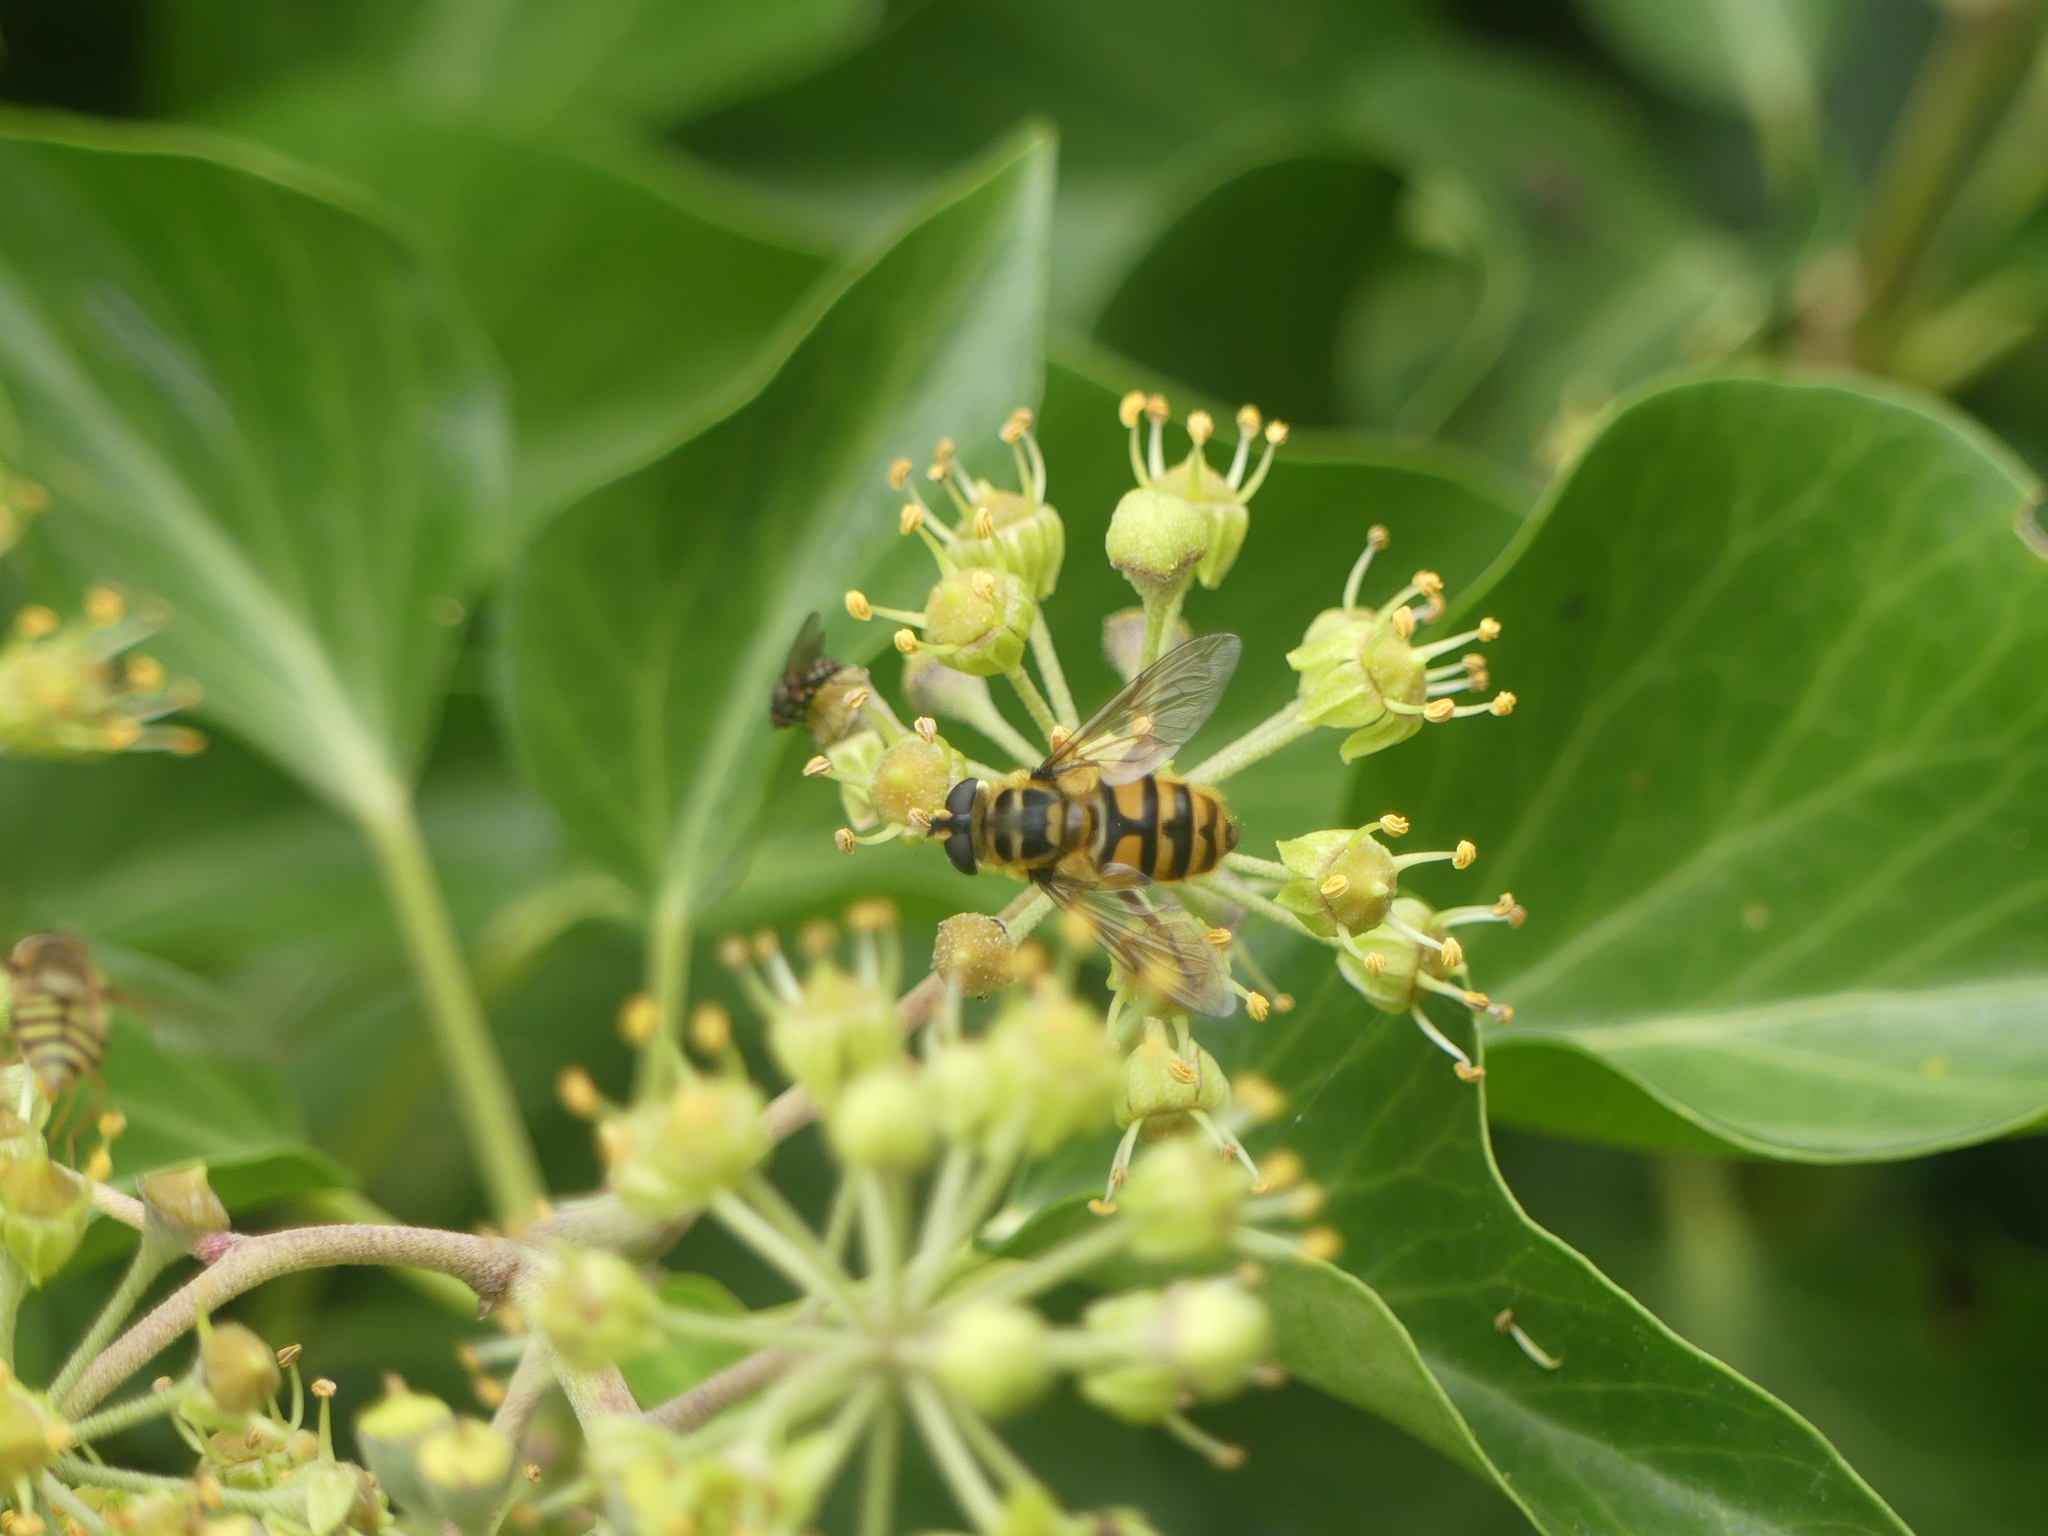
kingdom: Animalia
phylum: Arthropoda
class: Insecta
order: Diptera
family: Syrphidae
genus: Myathropa
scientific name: Myathropa florea
